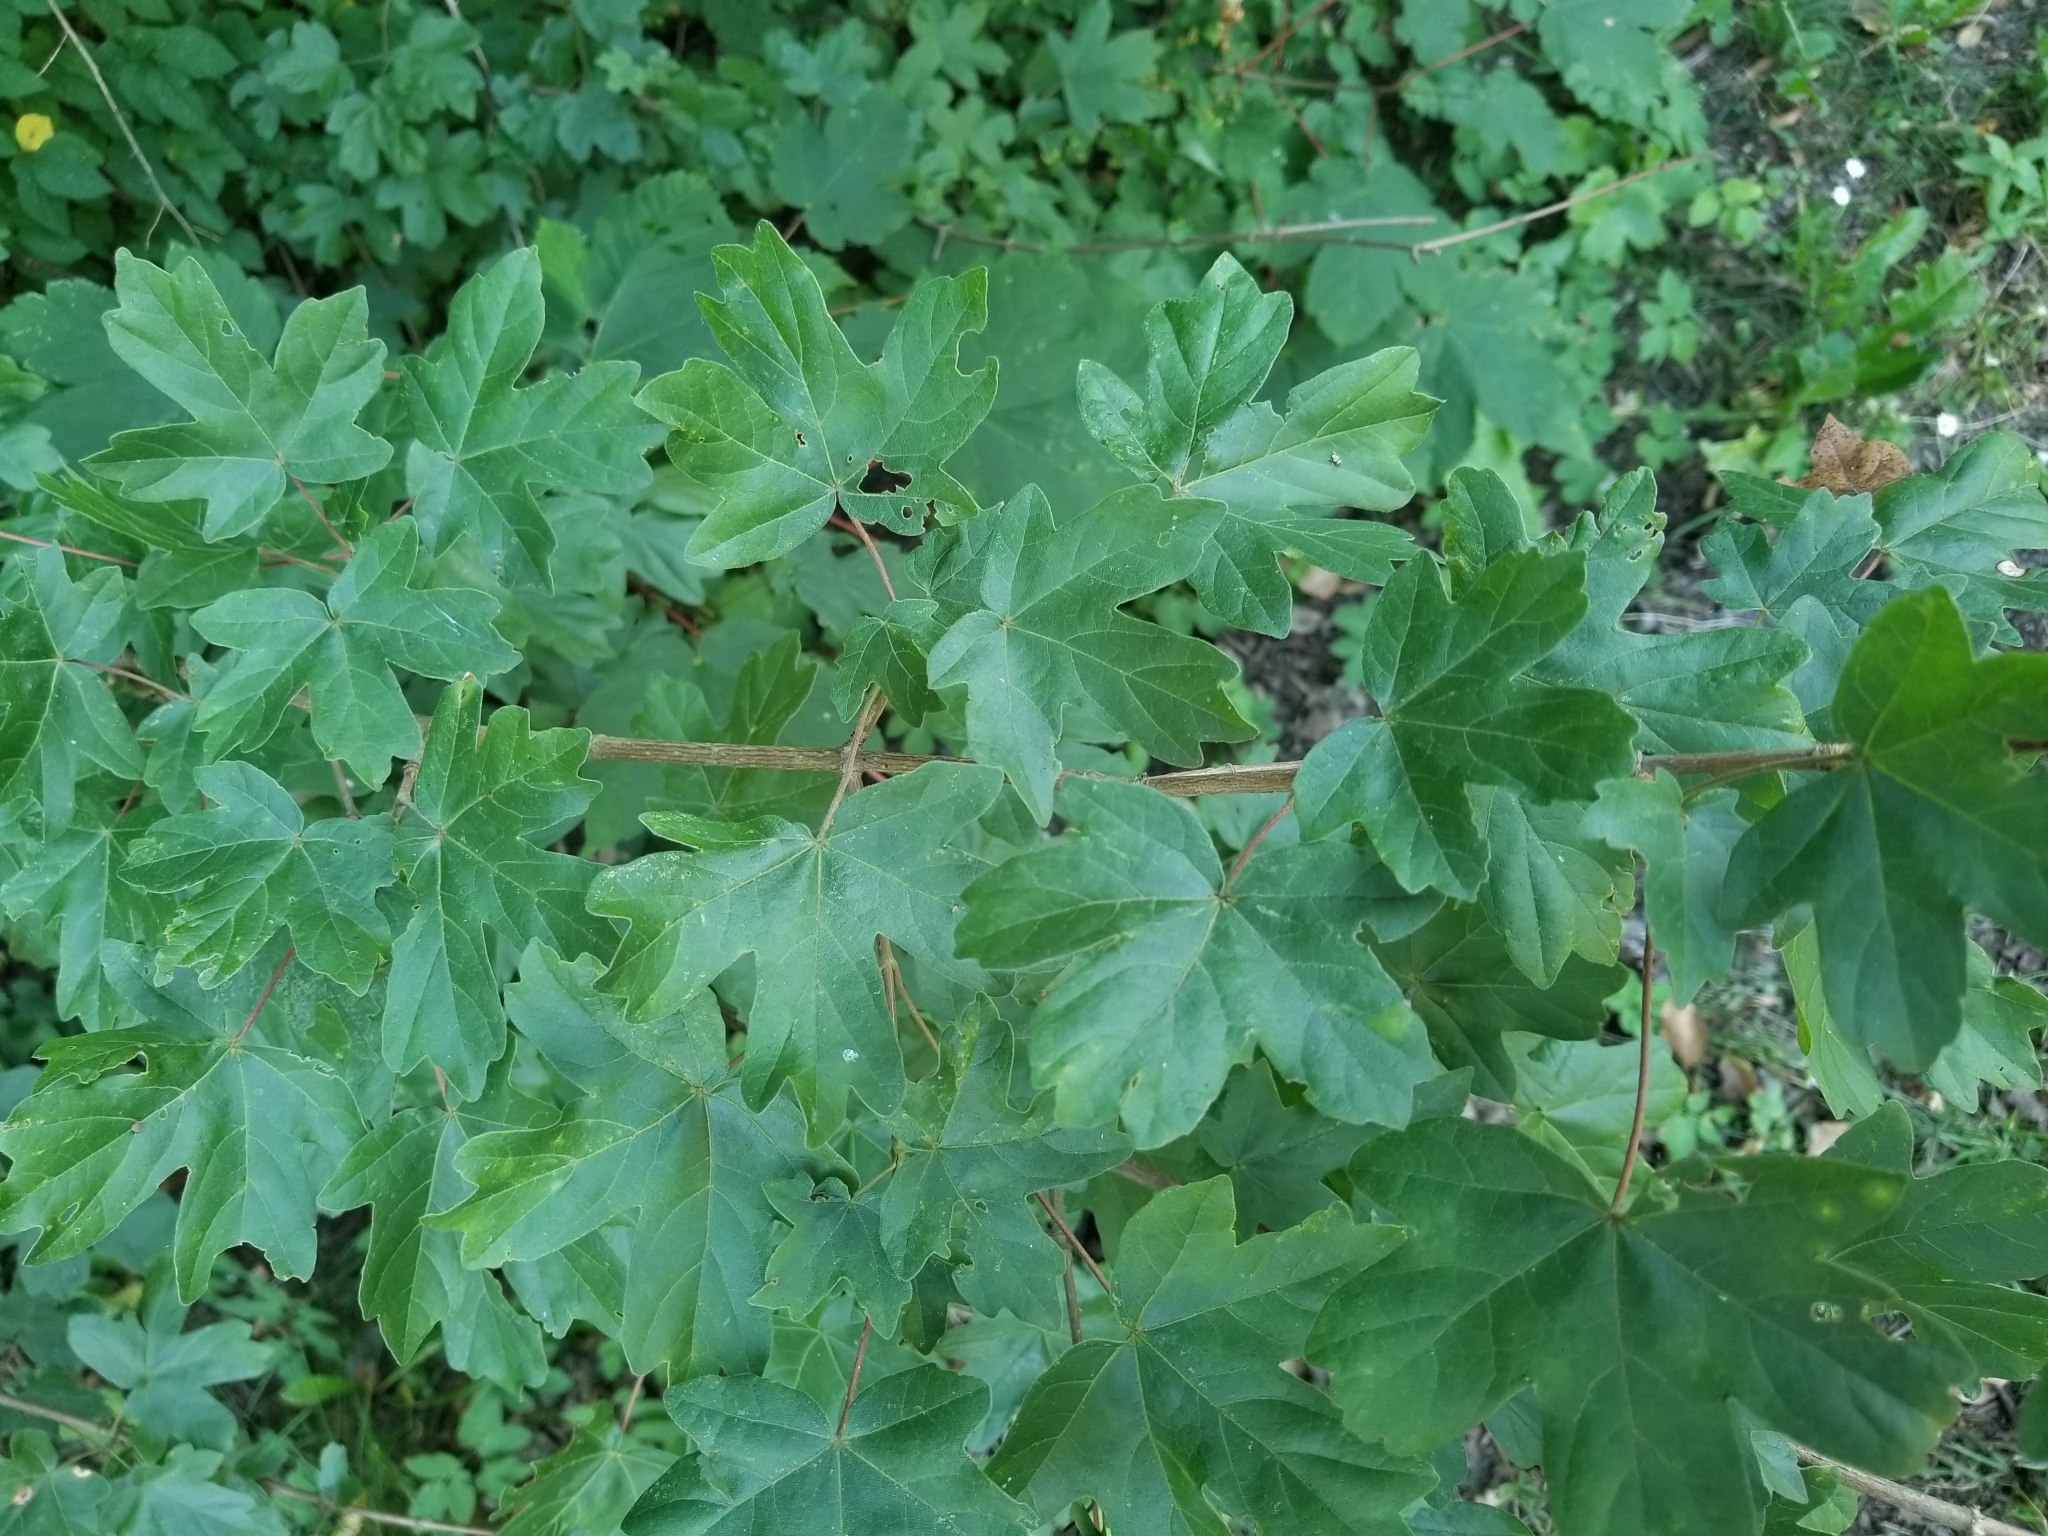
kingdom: Plantae
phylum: Tracheophyta
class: Magnoliopsida
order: Sapindales
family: Sapindaceae
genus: Acer
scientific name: Acer campestre
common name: Field maple
